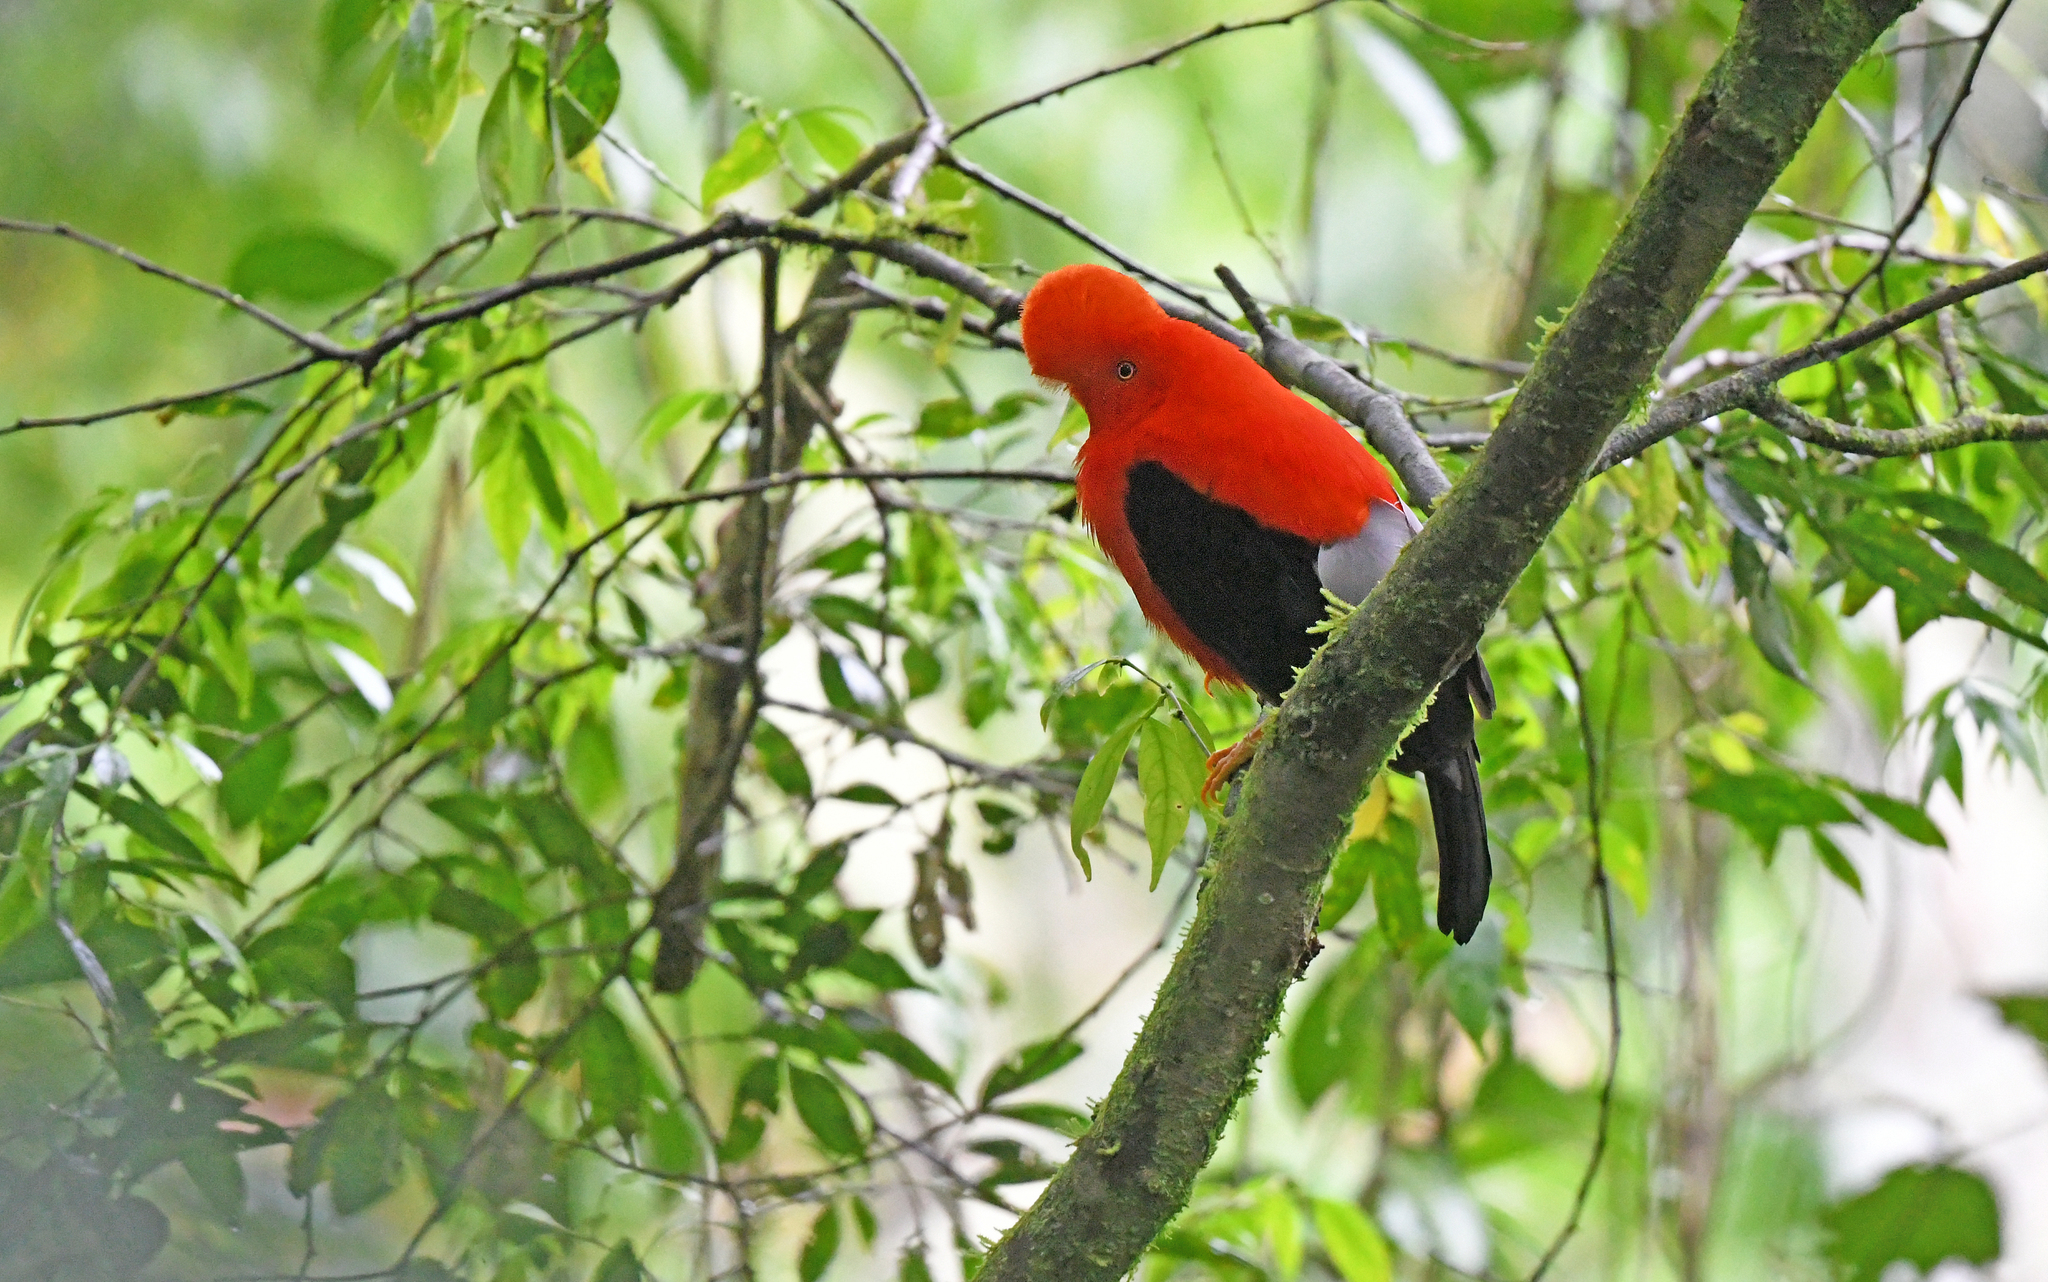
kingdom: Animalia
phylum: Chordata
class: Aves
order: Passeriformes
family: Cotingidae
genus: Rupicola
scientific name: Rupicola peruvianus
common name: Andean cock-of-the-rock
